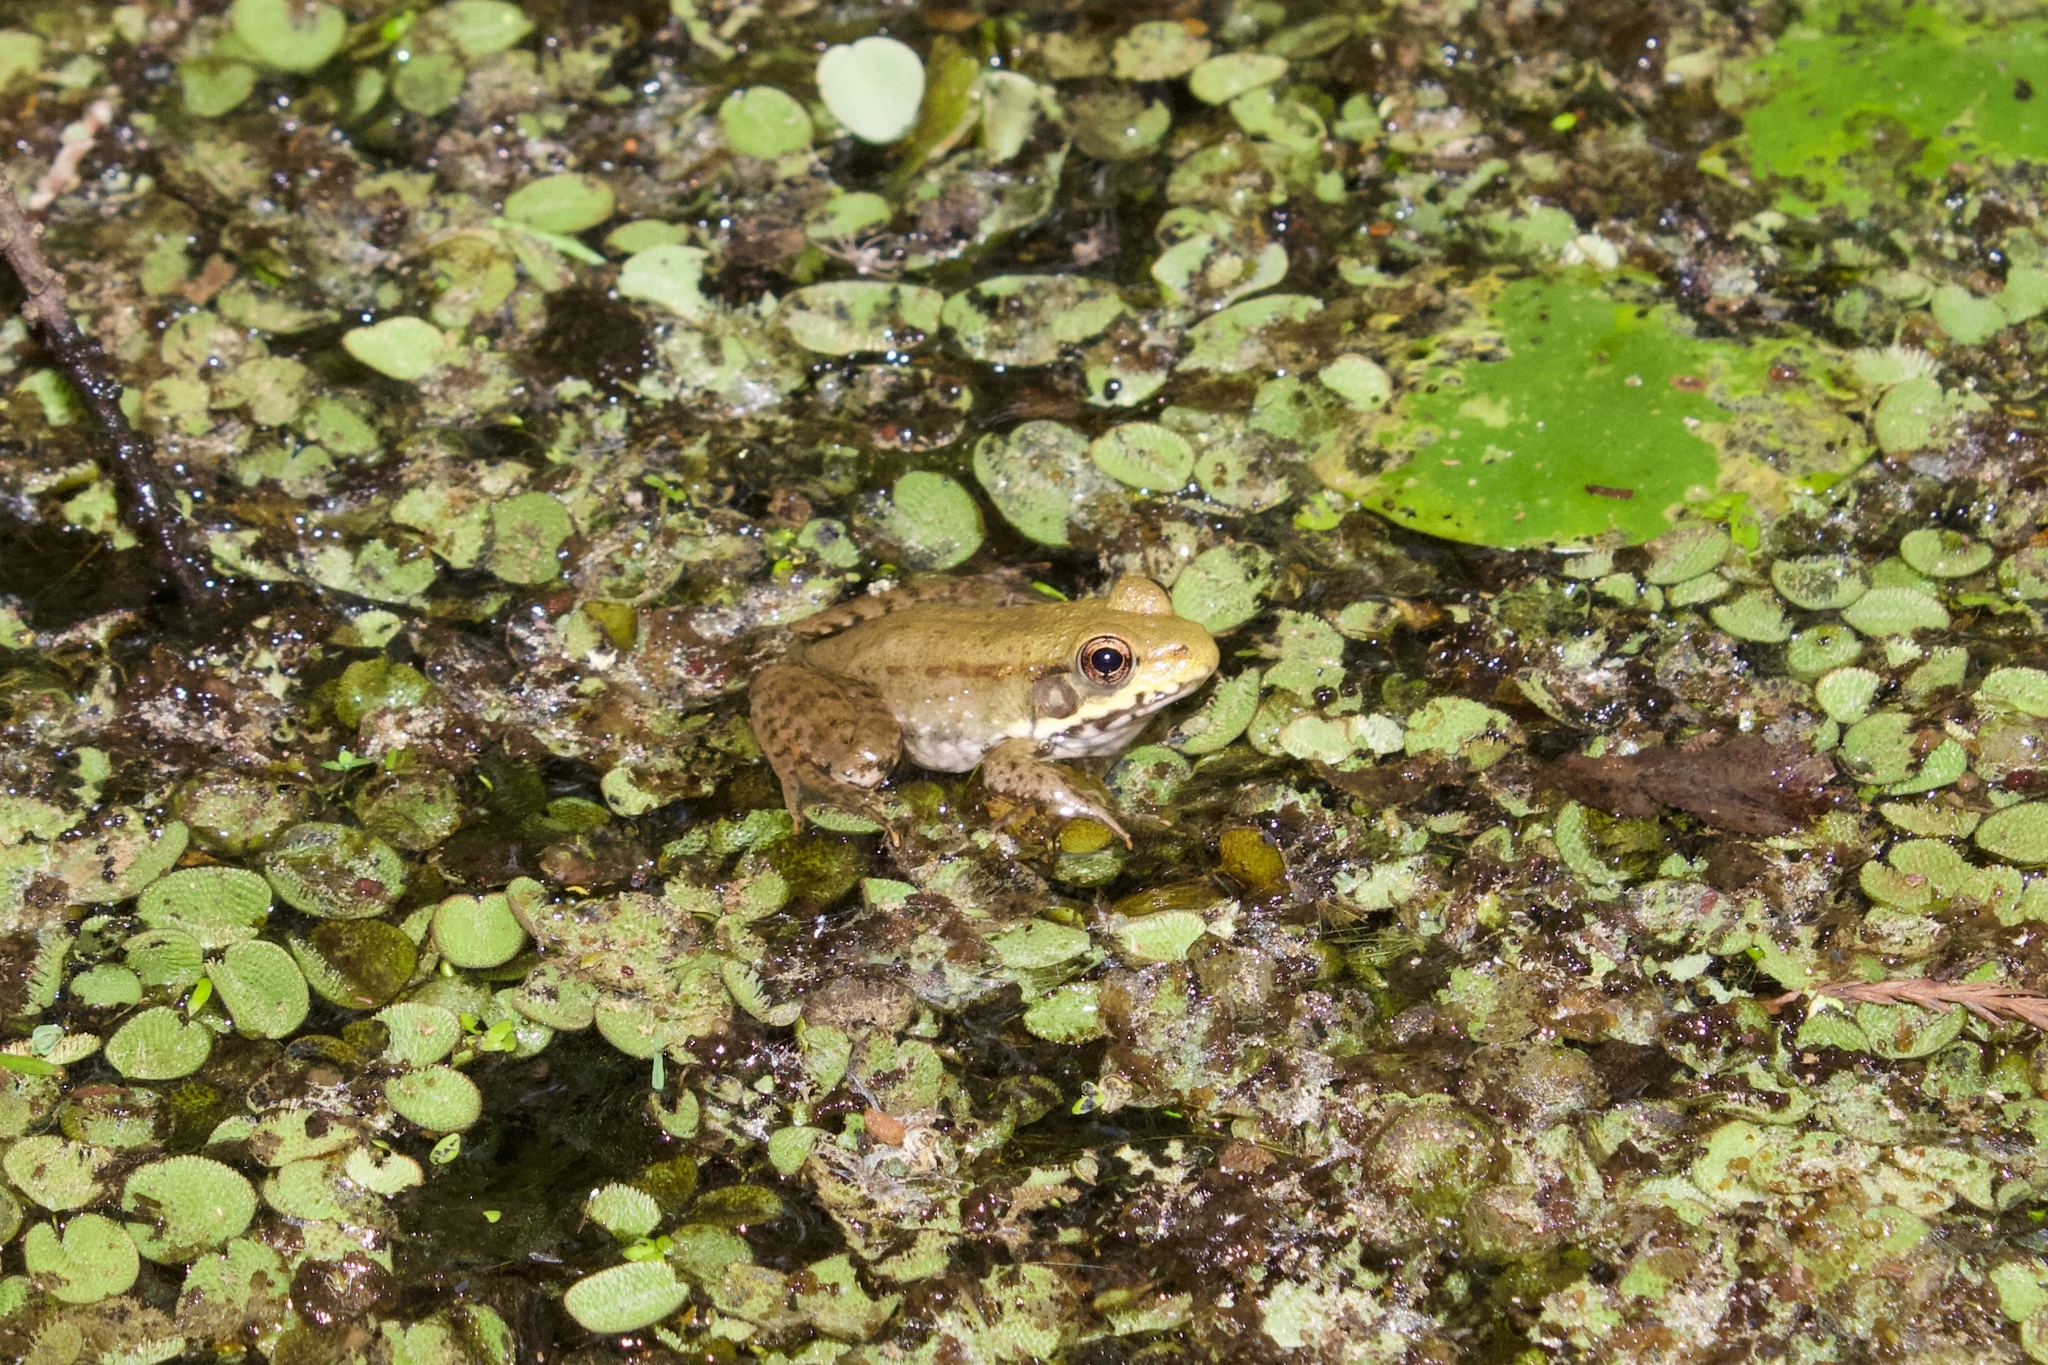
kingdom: Animalia
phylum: Chordata
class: Amphibia
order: Anura
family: Ranidae
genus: Lithobates
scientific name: Lithobates clamitans
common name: Green frog
